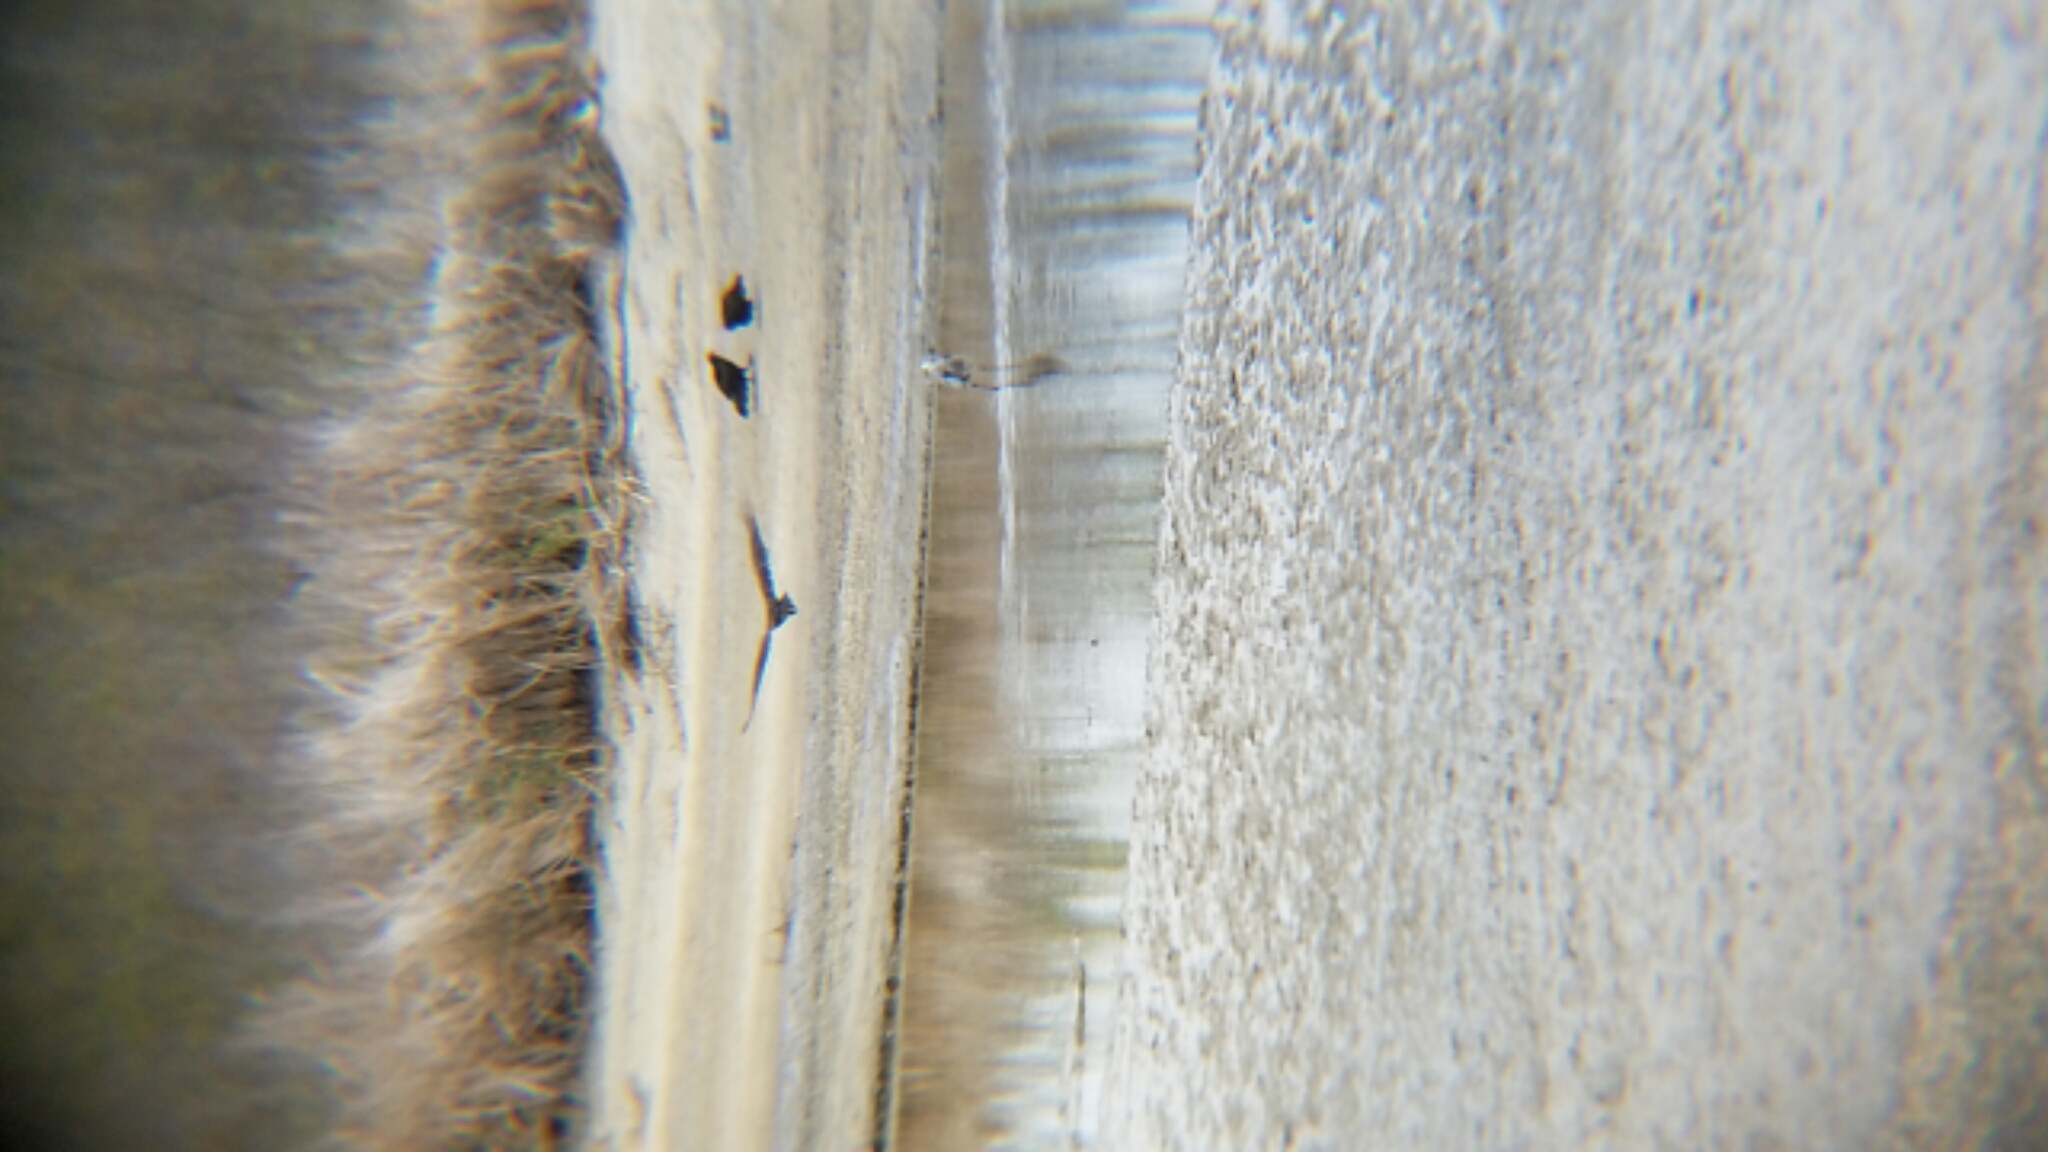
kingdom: Animalia
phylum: Chordata
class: Aves
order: Accipitriformes
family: Cathartidae
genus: Cathartes
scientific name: Cathartes aura
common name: Turkey vulture
